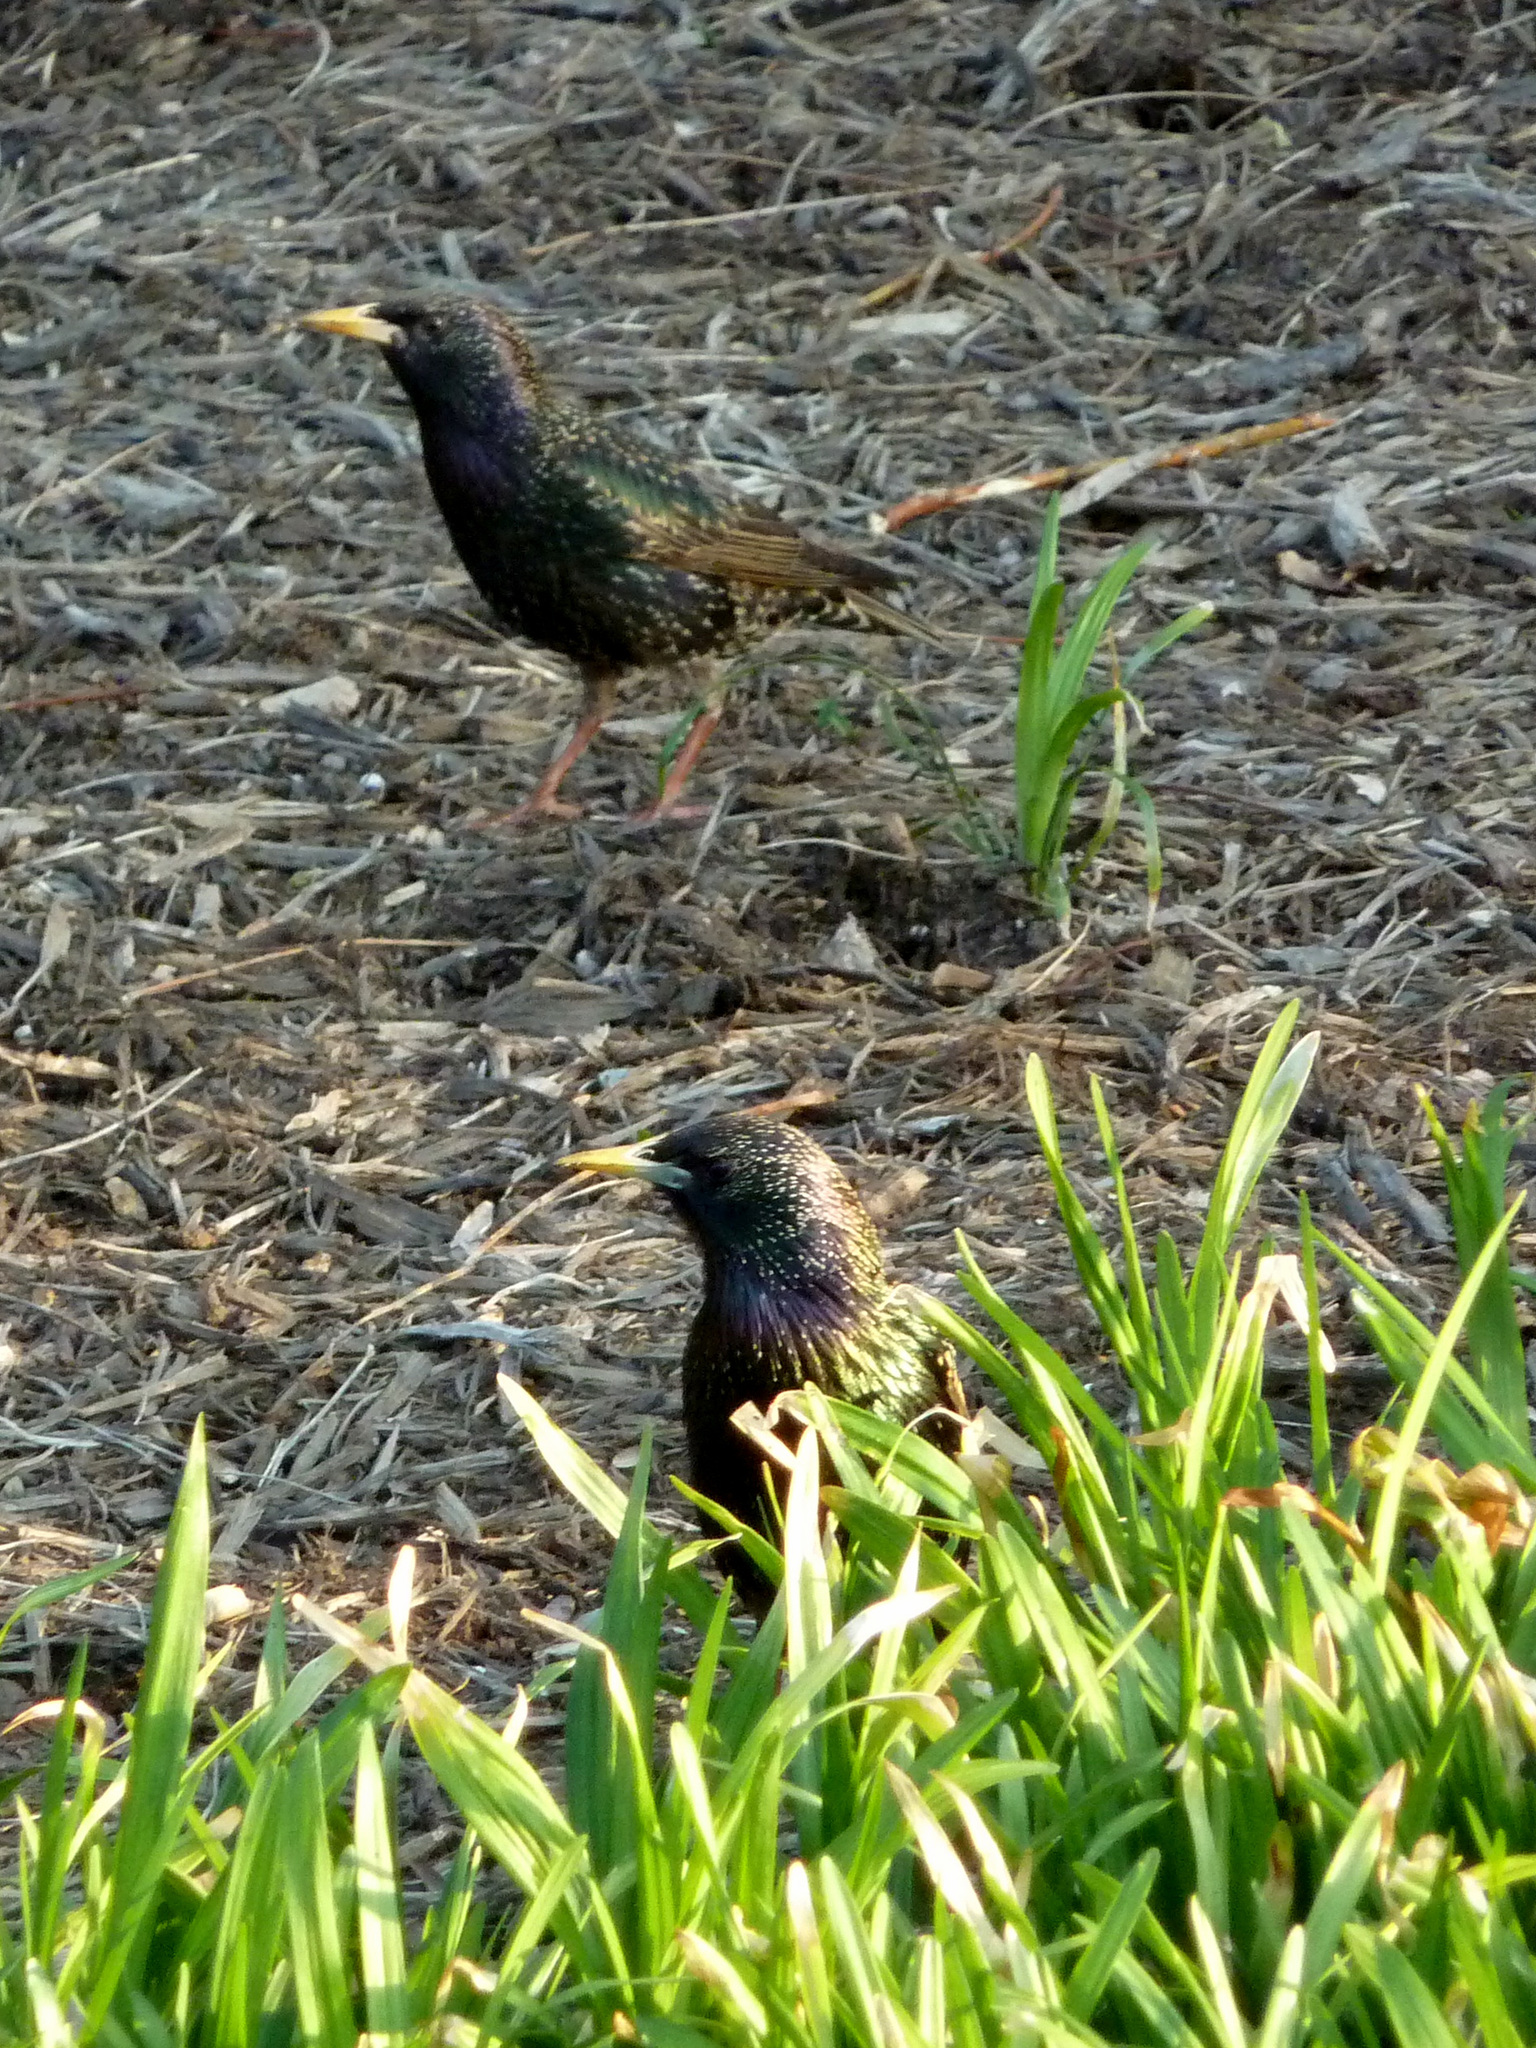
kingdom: Animalia
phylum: Chordata
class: Aves
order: Passeriformes
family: Sturnidae
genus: Sturnus
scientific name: Sturnus vulgaris
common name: Common starling
